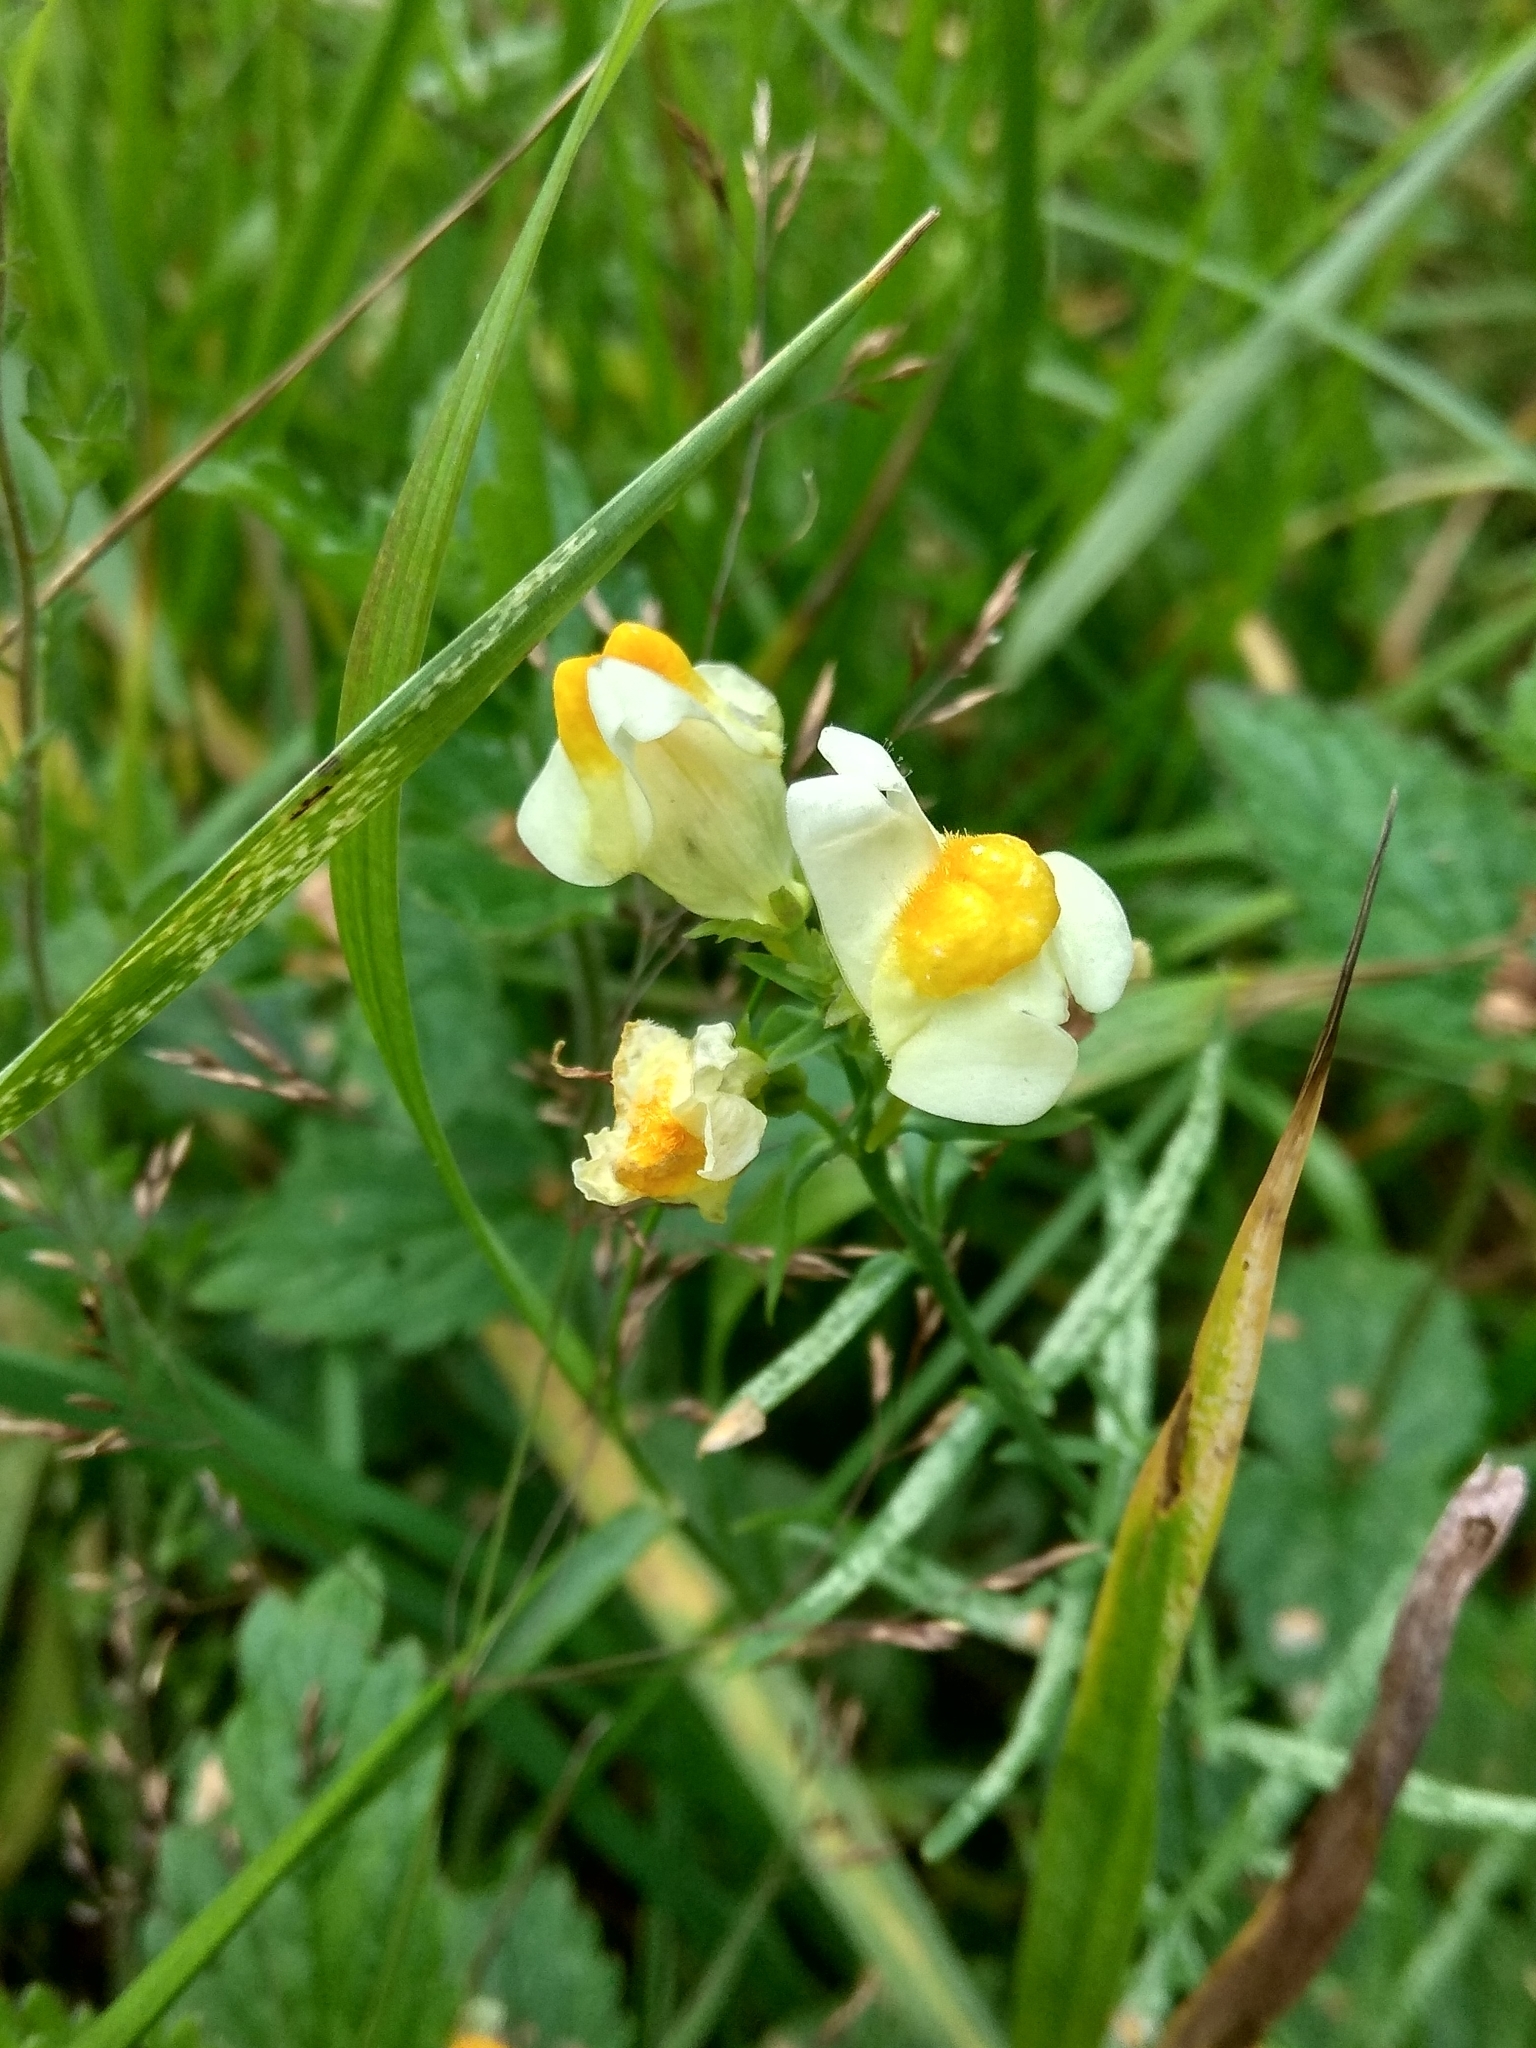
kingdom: Plantae
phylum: Tracheophyta
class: Magnoliopsida
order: Lamiales
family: Plantaginaceae
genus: Linaria
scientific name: Linaria vulgaris
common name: Butter and eggs
